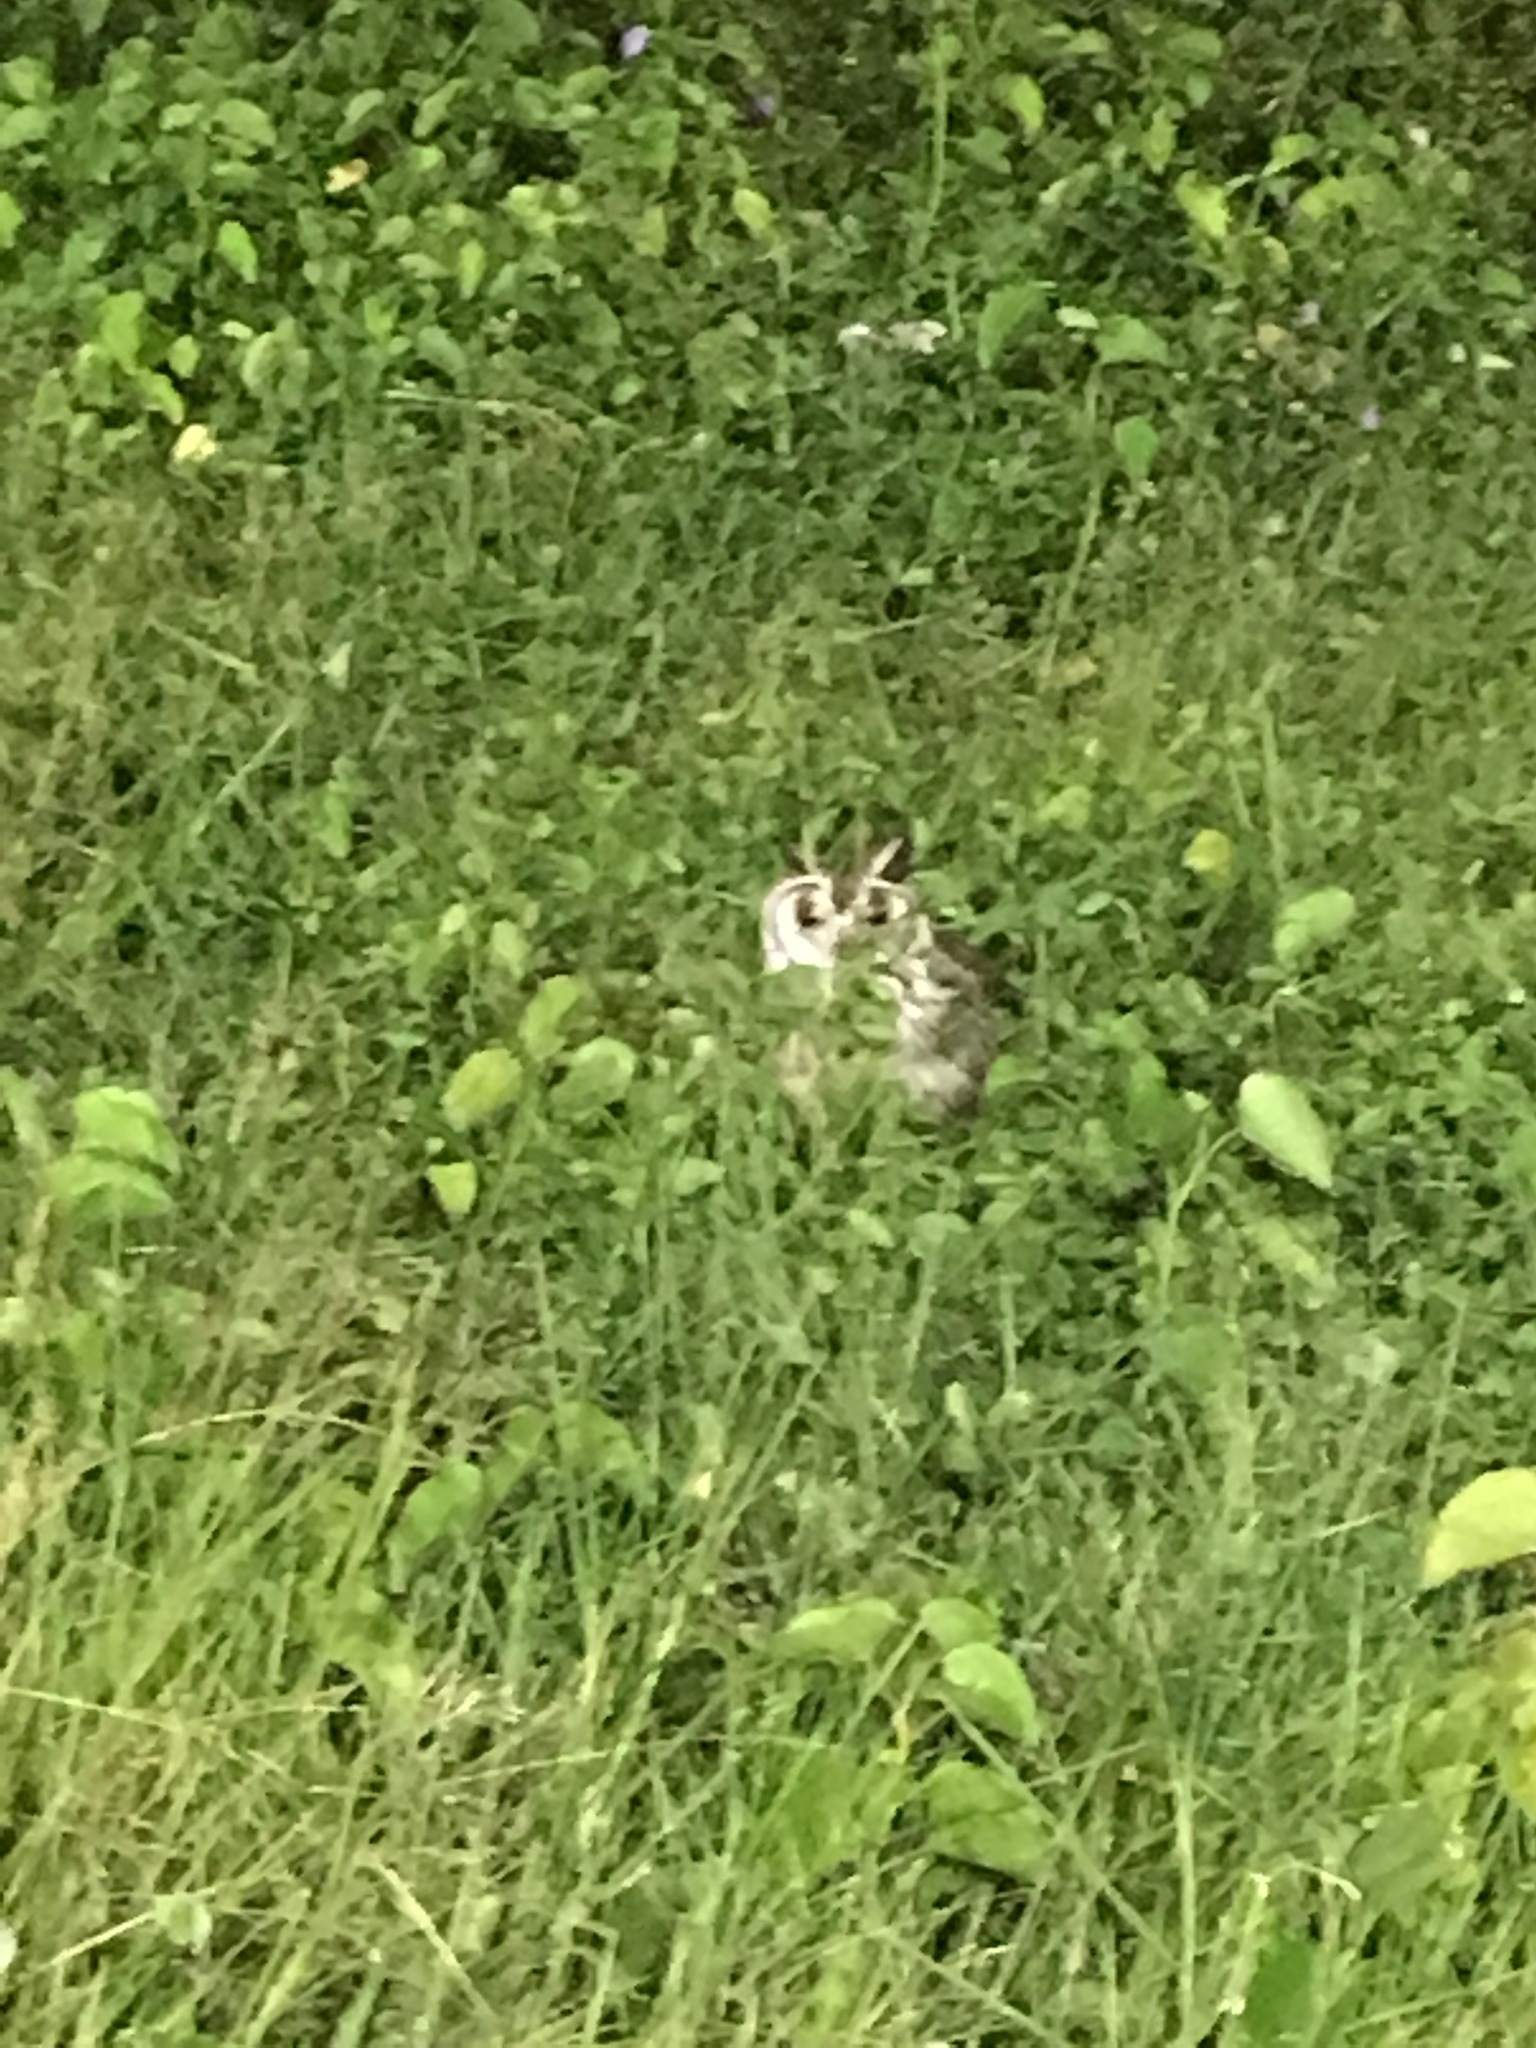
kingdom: Animalia
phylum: Chordata
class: Aves
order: Strigiformes
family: Strigidae
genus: Pseudoscops
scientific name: Pseudoscops clamator
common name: Striped owl
